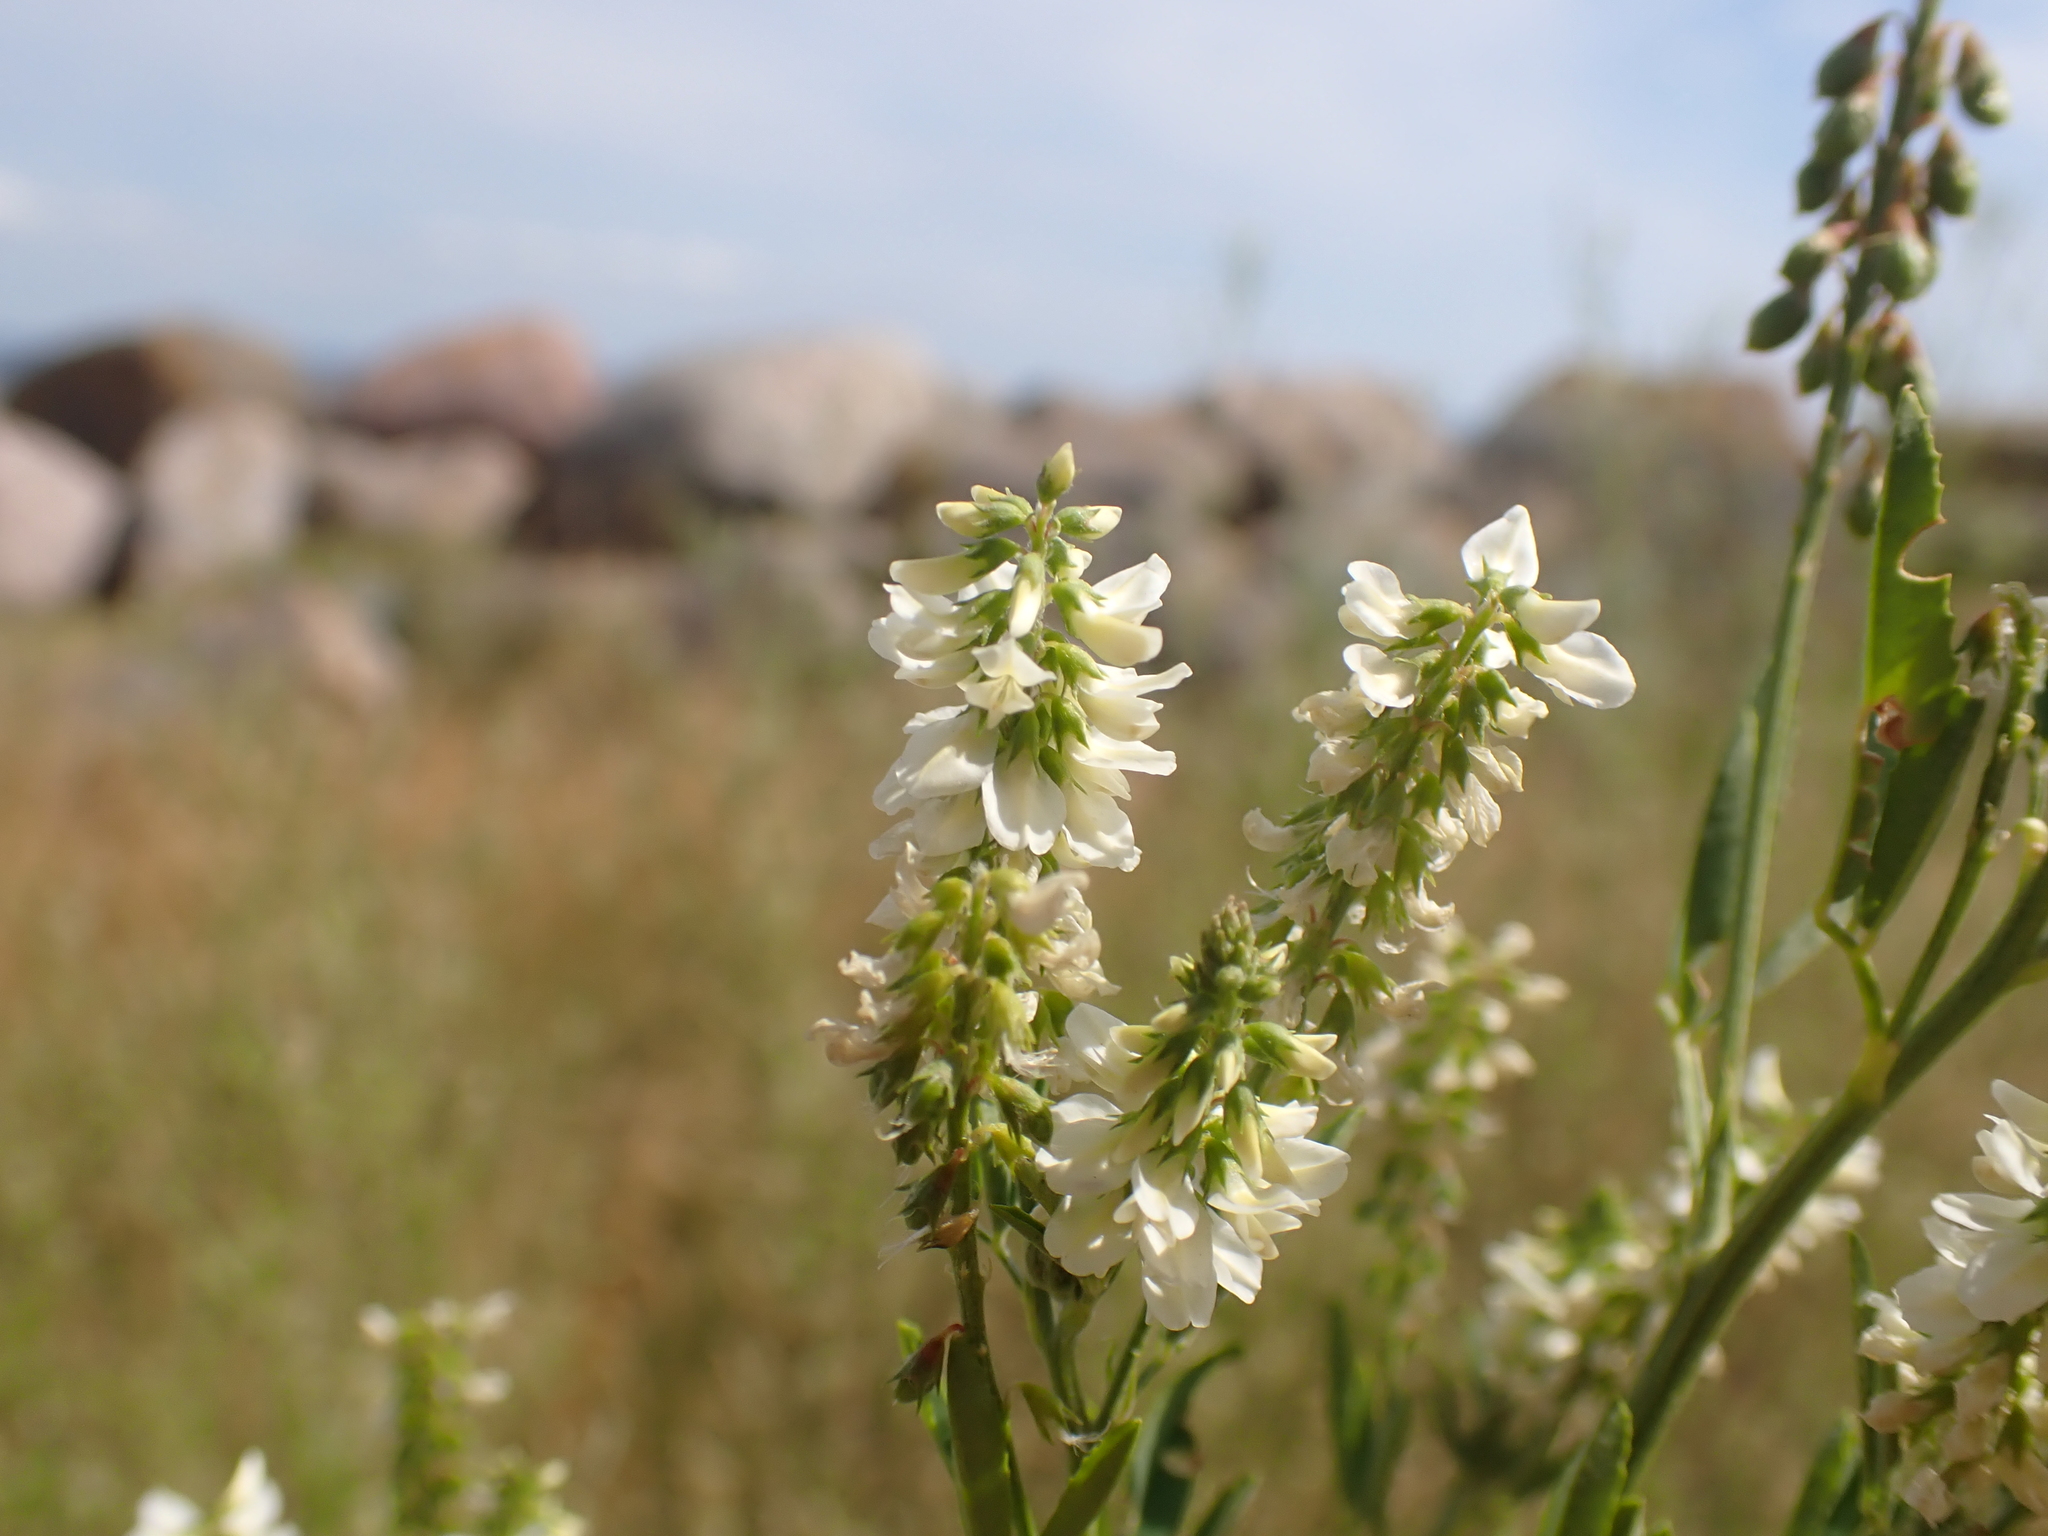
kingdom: Plantae
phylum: Tracheophyta
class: Magnoliopsida
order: Fabales
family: Fabaceae
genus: Melilotus
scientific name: Melilotus albus
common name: White melilot
